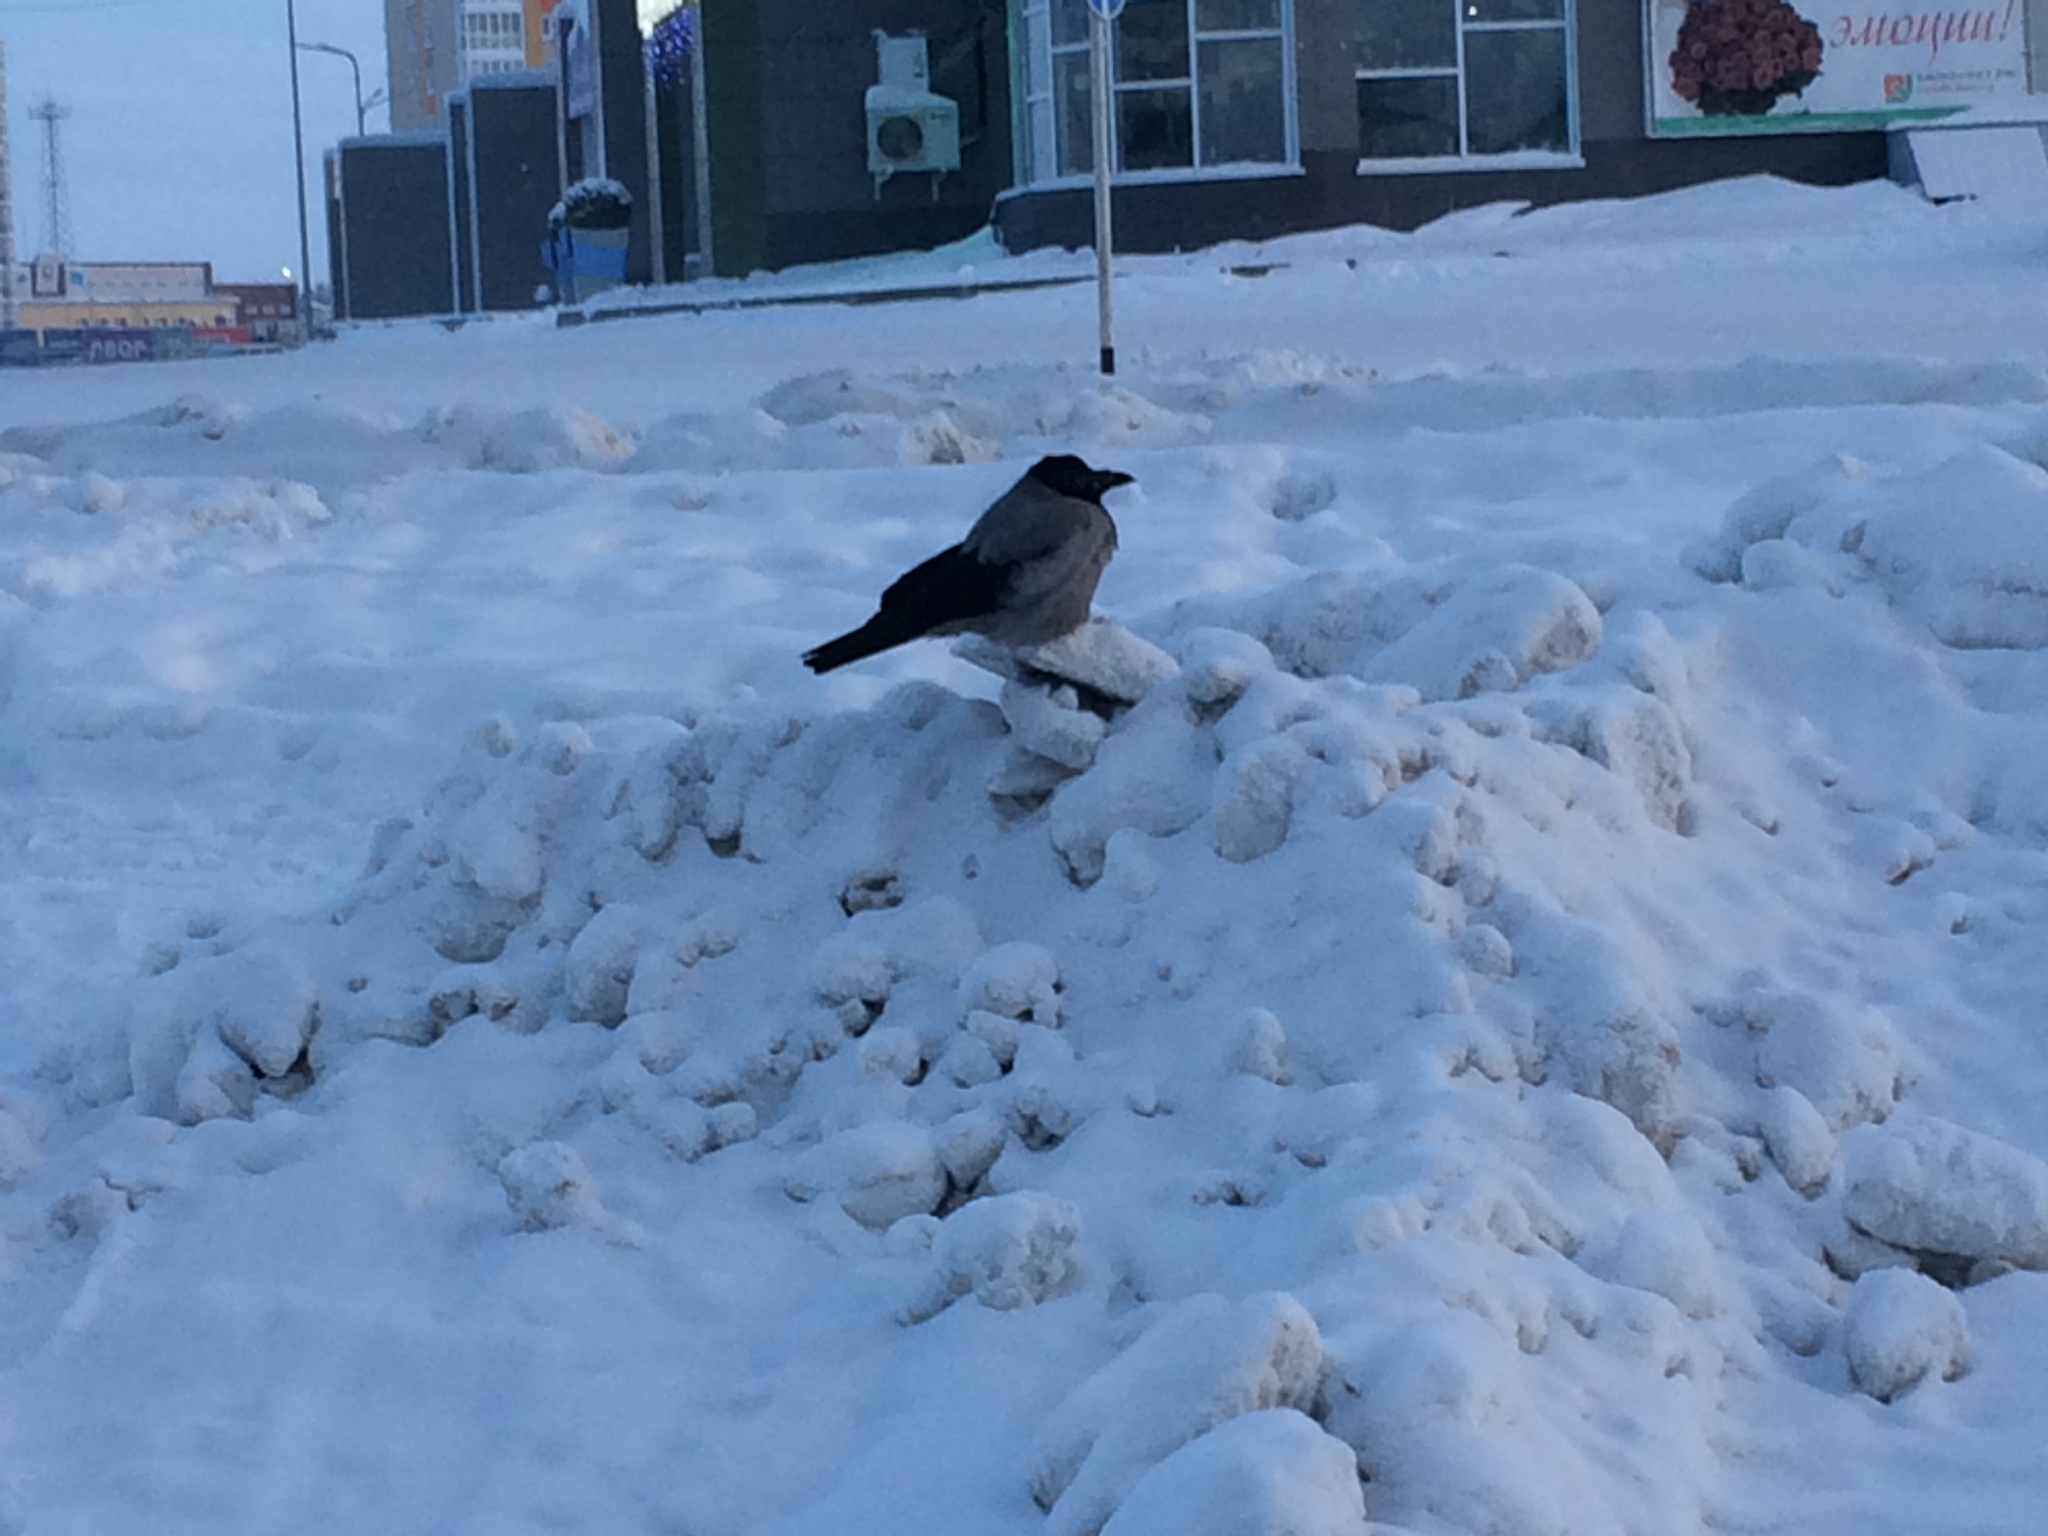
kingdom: Animalia
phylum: Chordata
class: Aves
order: Passeriformes
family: Corvidae
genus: Corvus
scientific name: Corvus cornix
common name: Hooded crow
